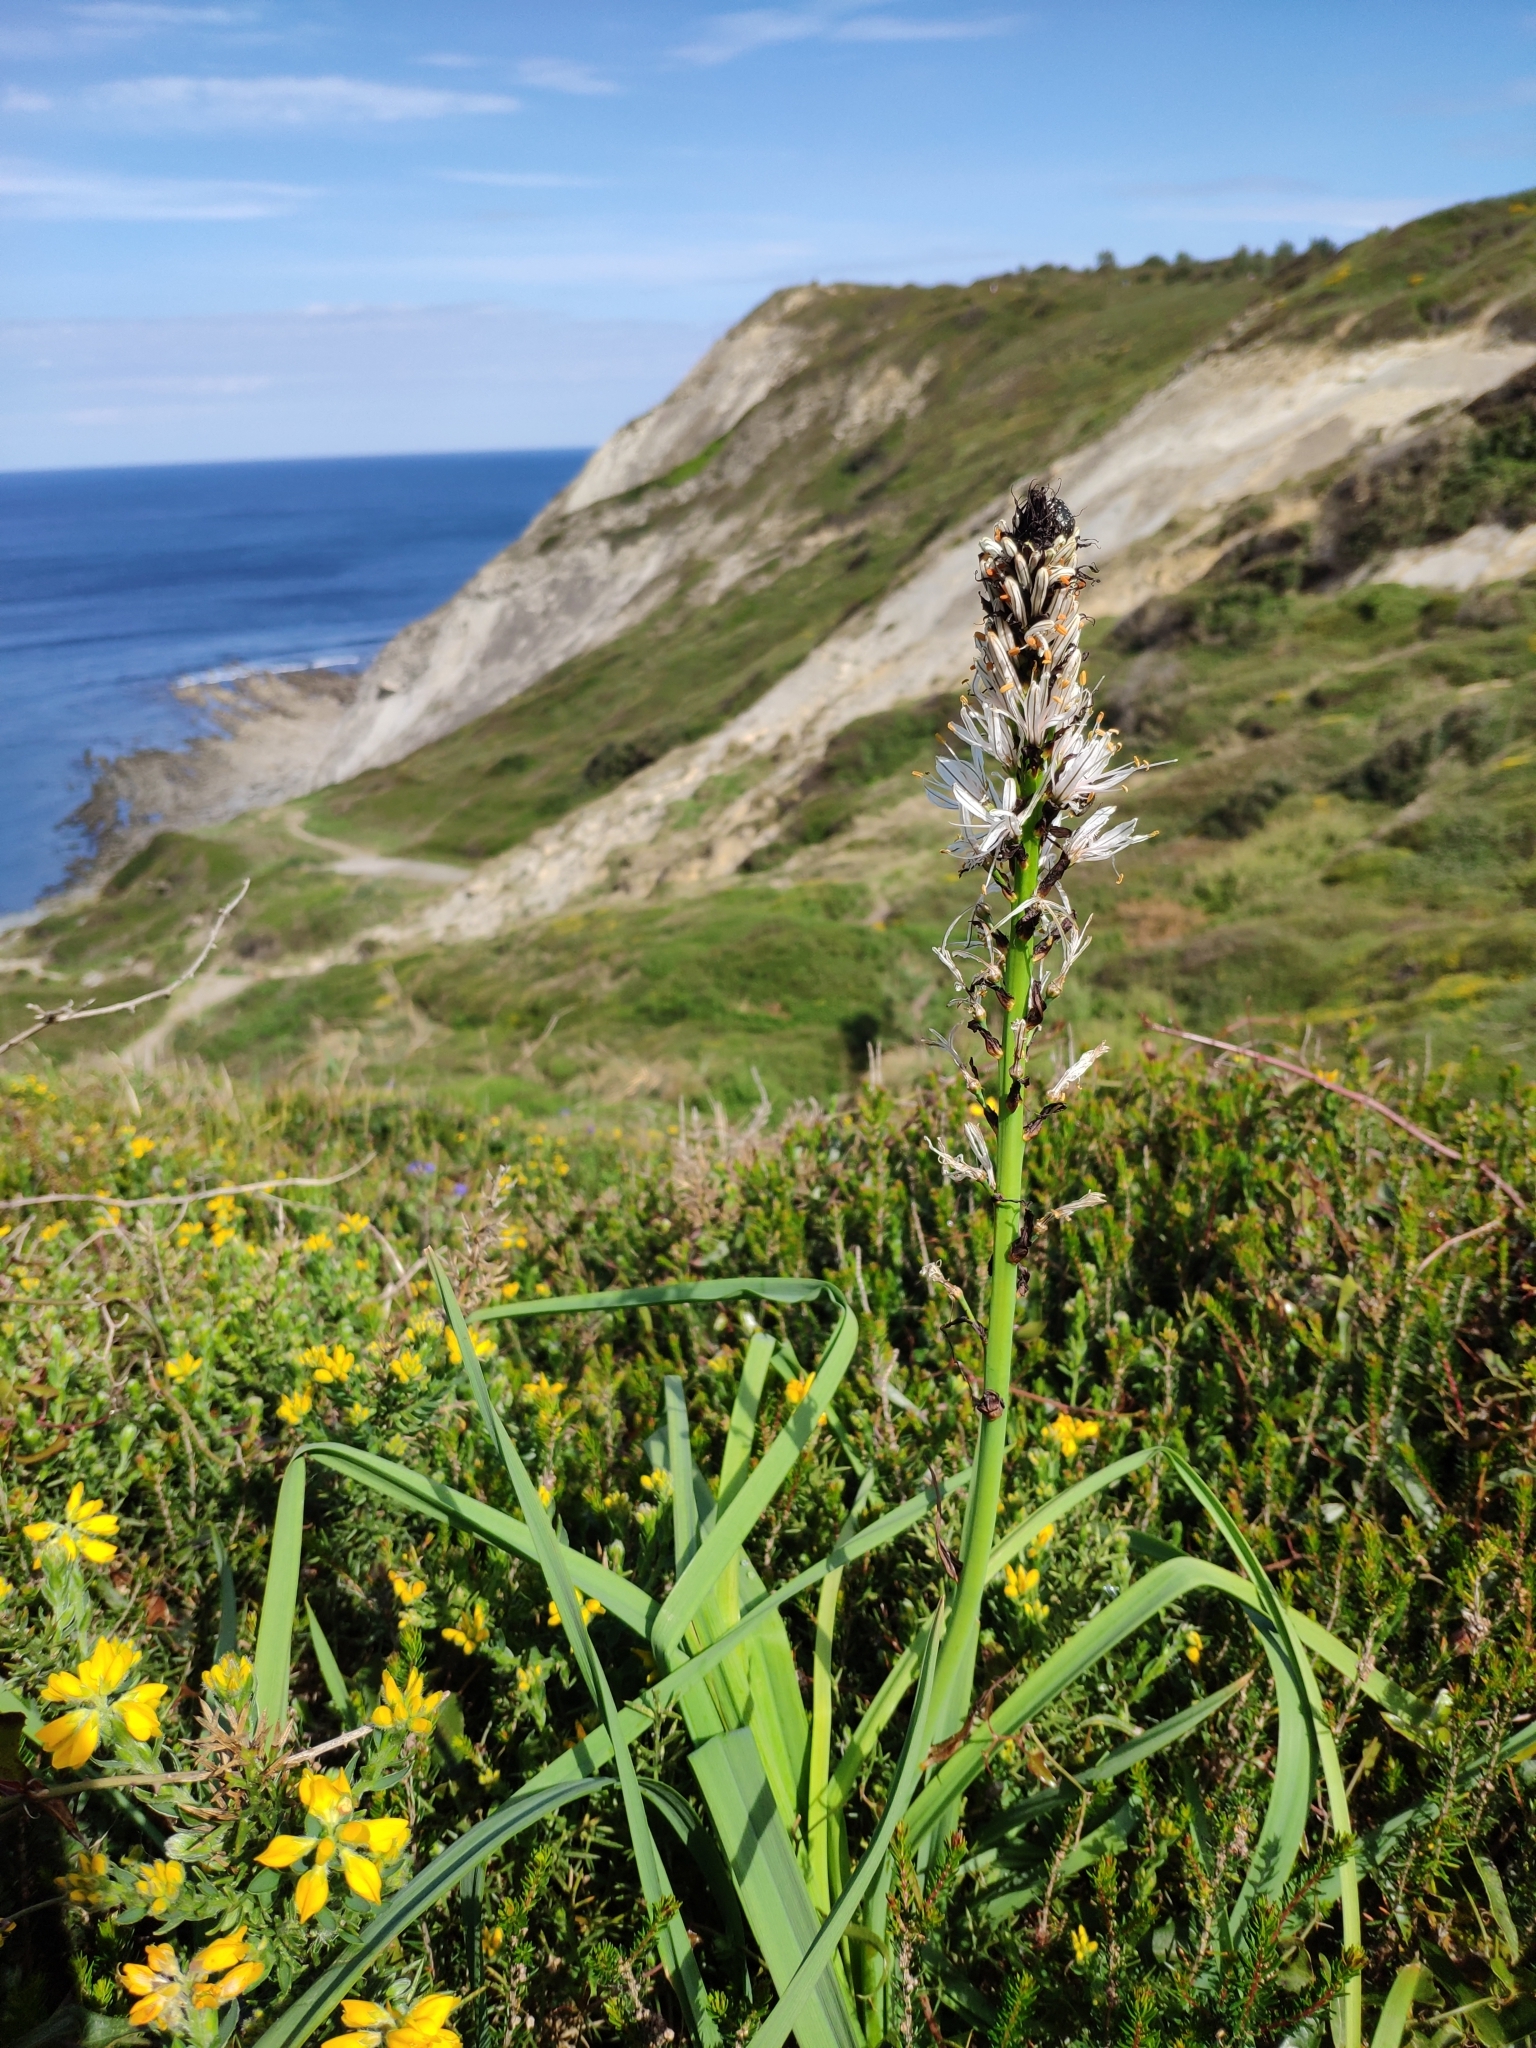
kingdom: Plantae
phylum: Tracheophyta
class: Liliopsida
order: Asparagales
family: Asphodelaceae
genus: Asphodelus
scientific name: Asphodelus albus
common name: White asphodel
